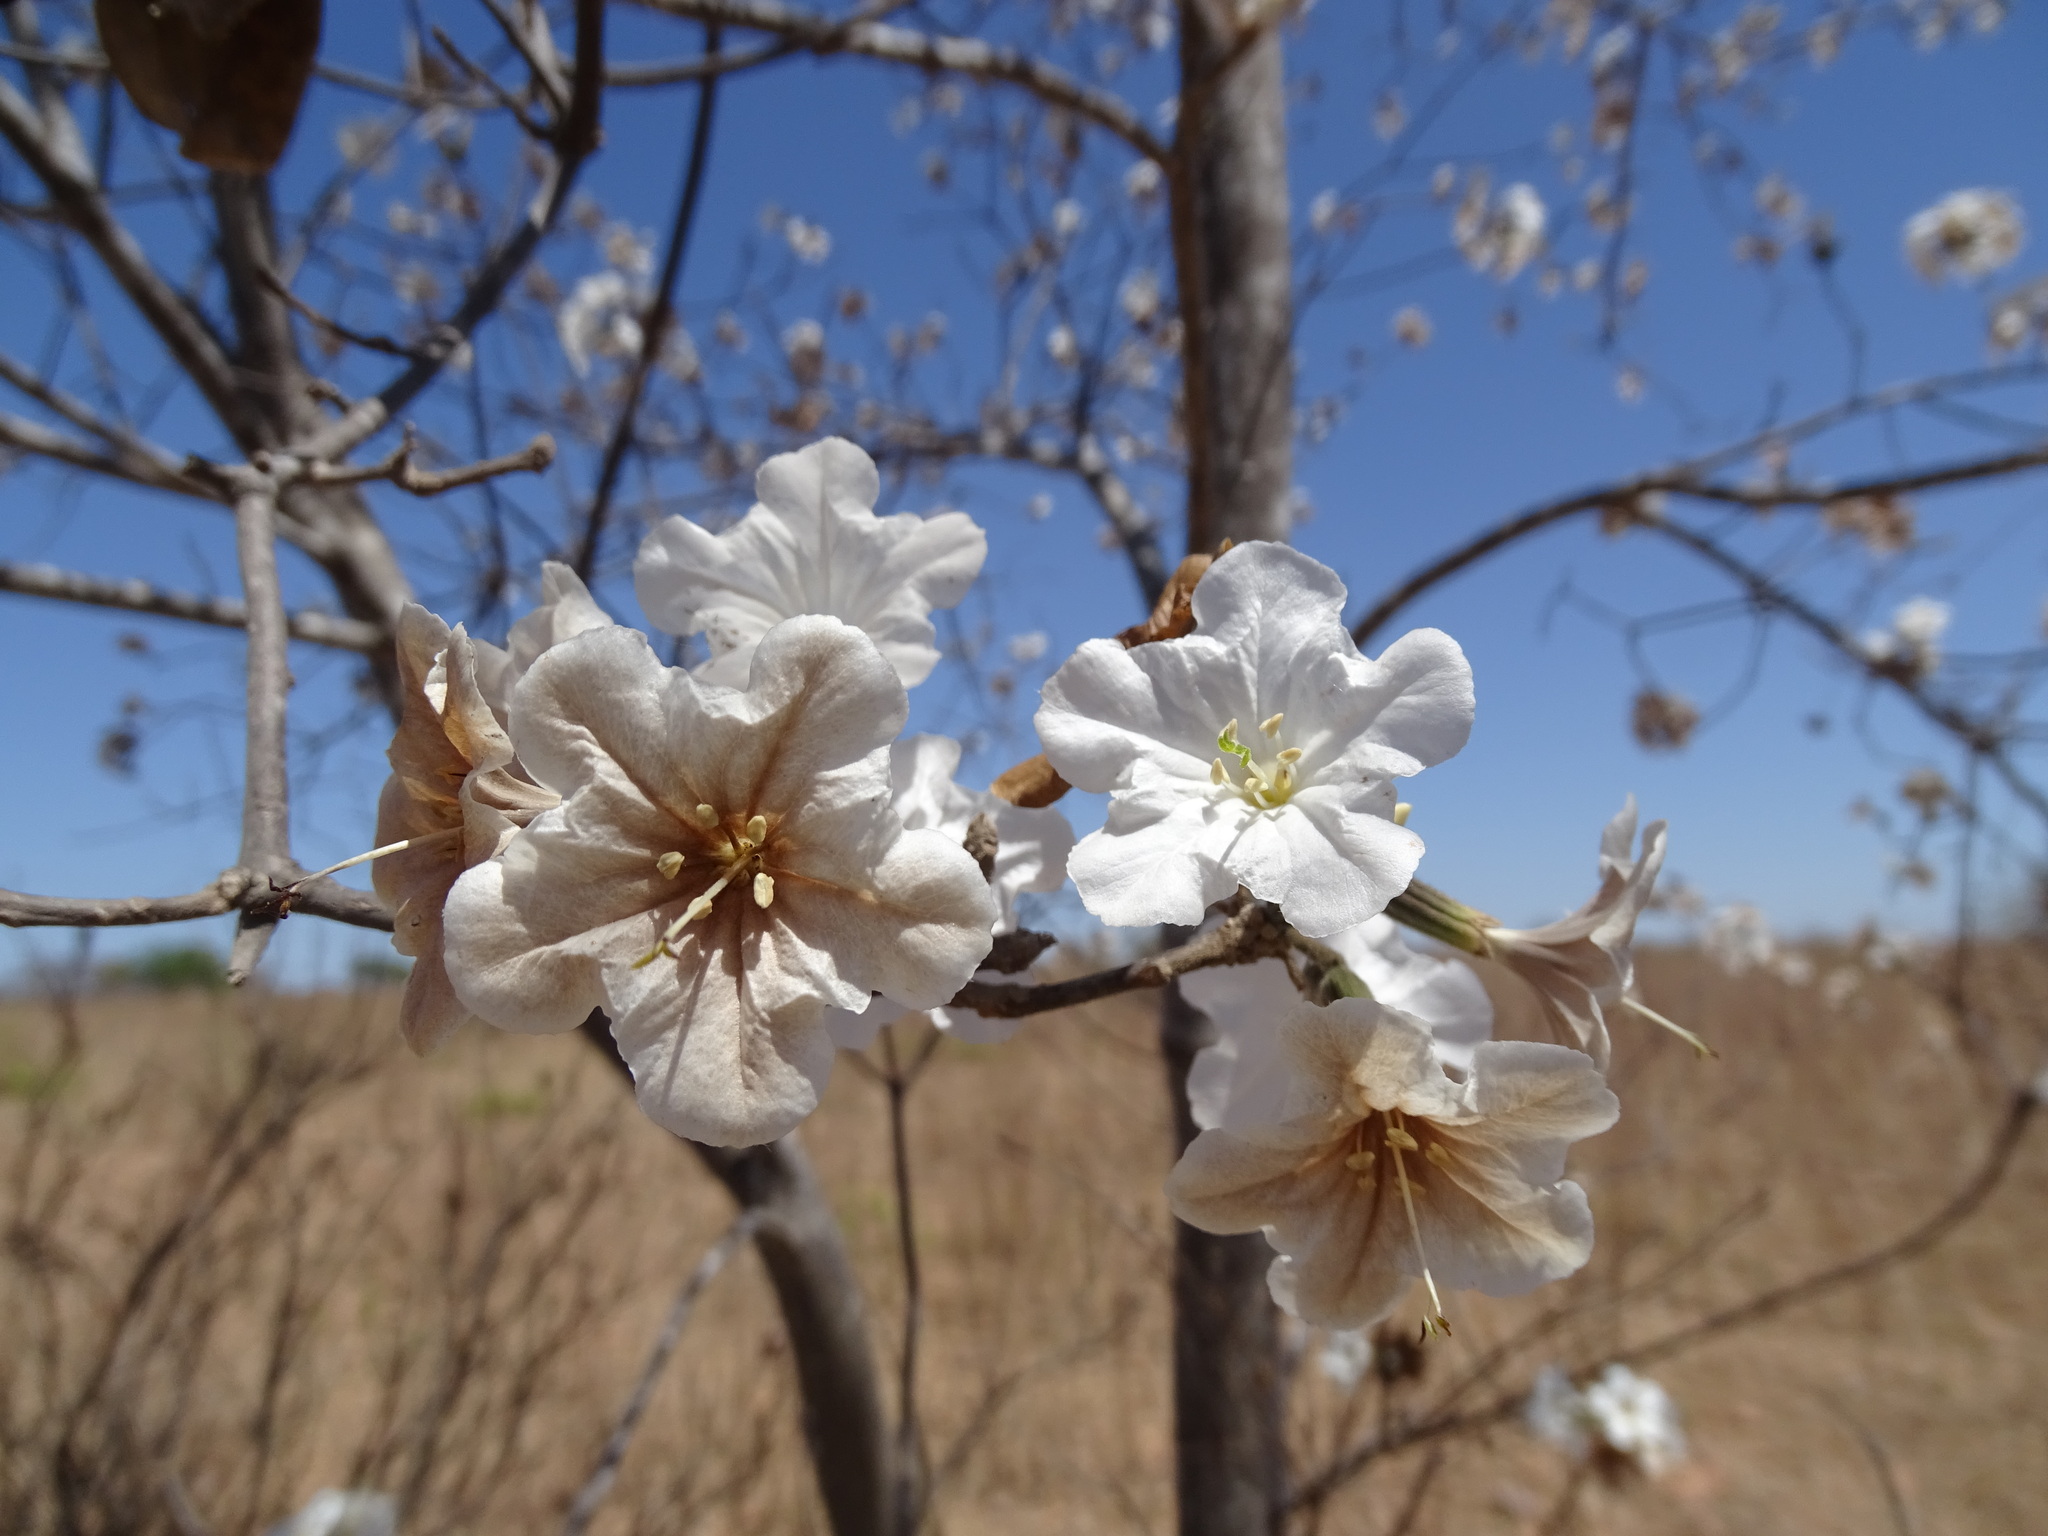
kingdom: Plantae
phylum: Tracheophyta
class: Magnoliopsida
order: Boraginales
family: Cordiaceae
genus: Cordia
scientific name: Cordia sonorae
